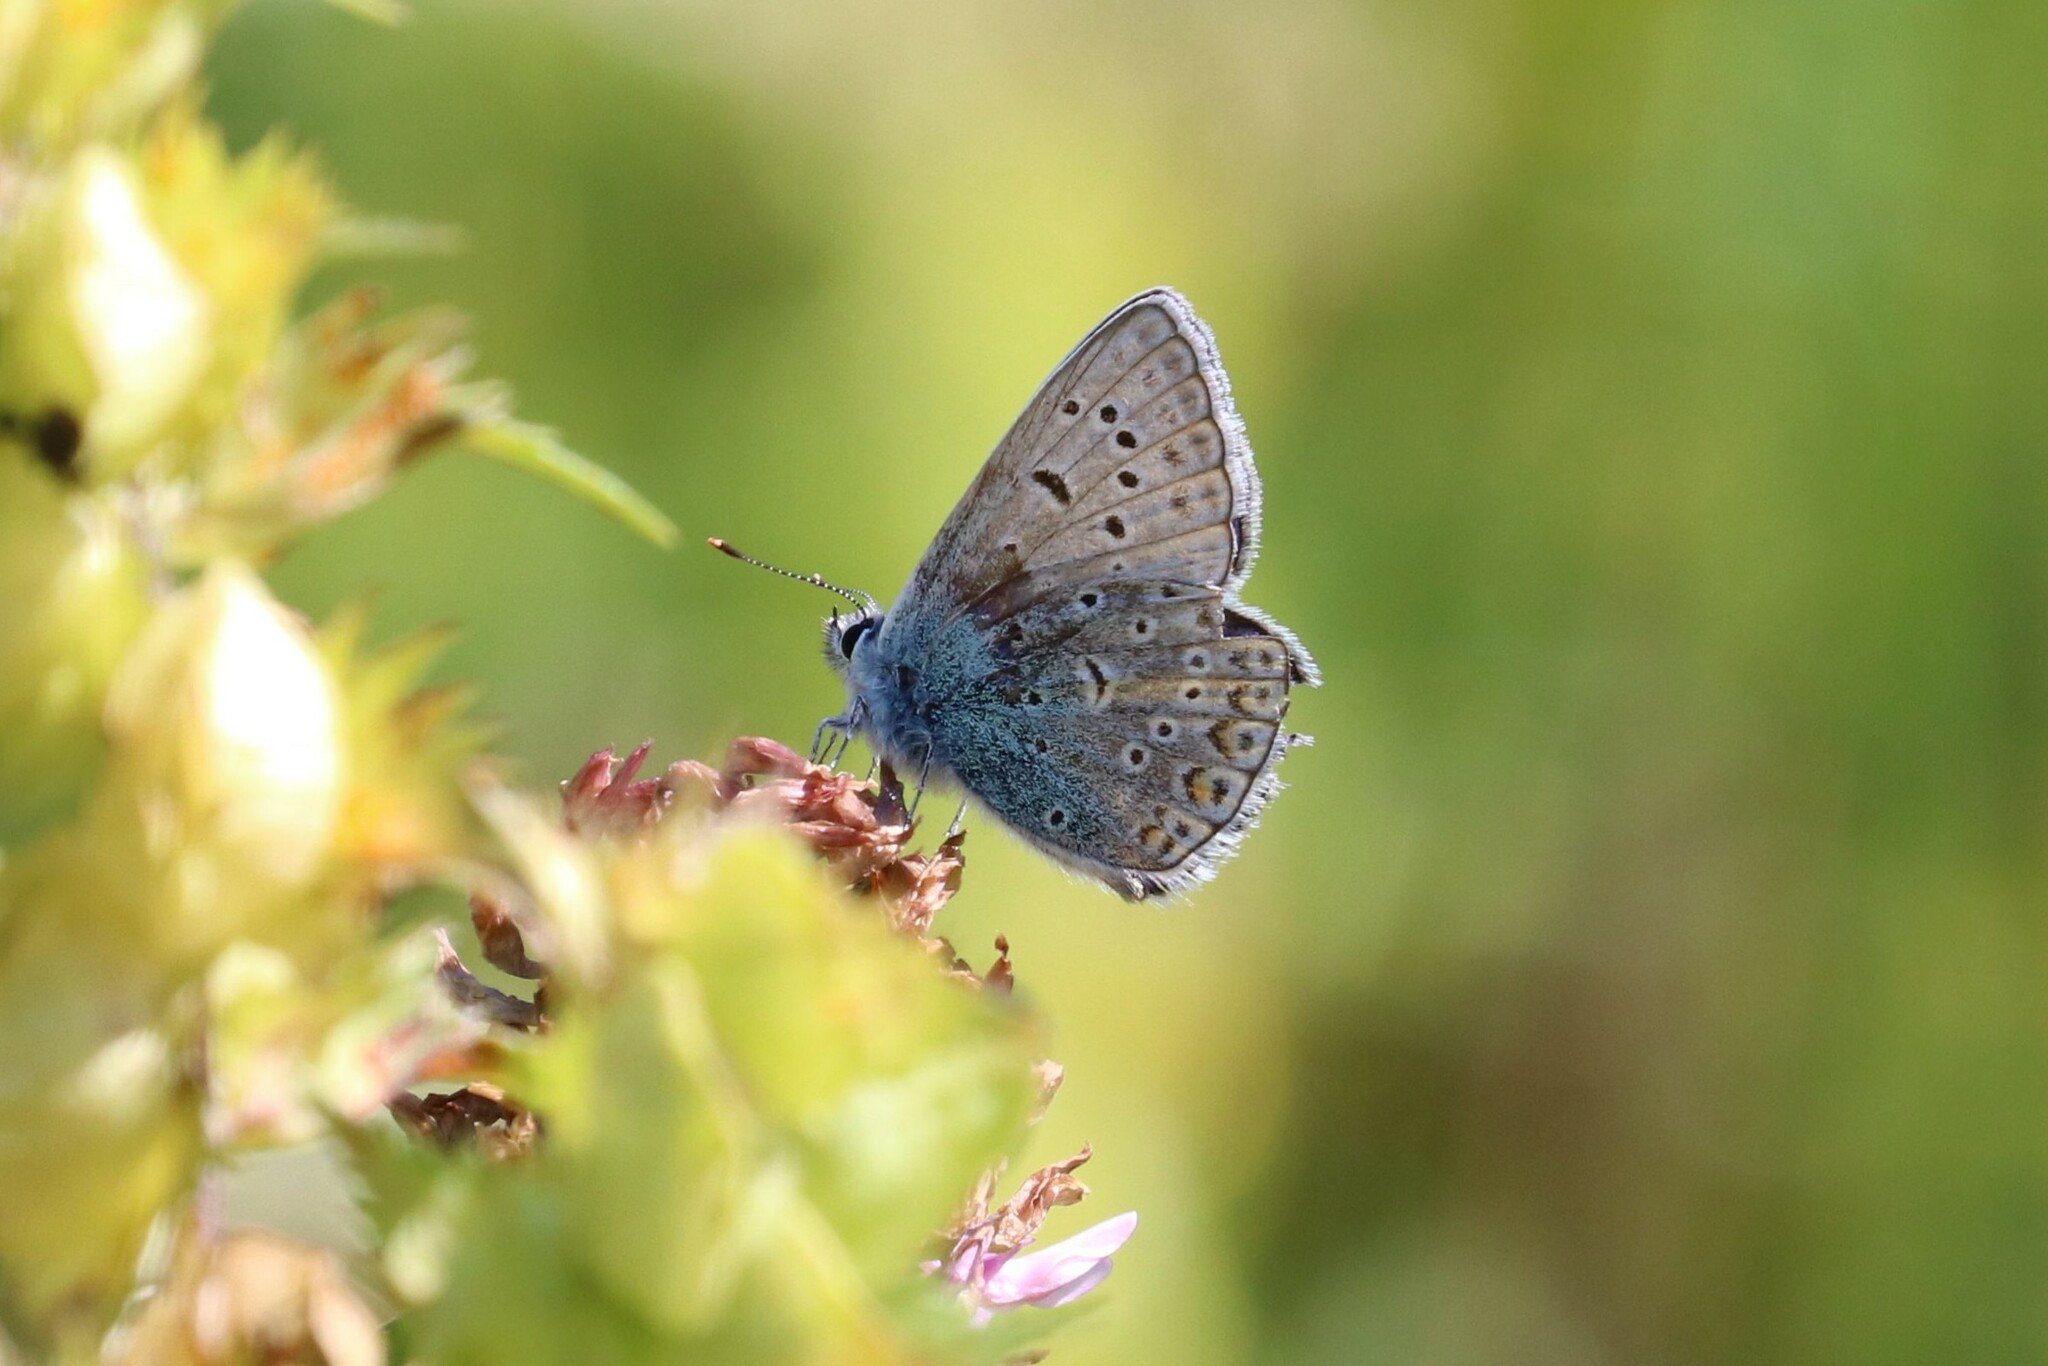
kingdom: Animalia
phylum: Arthropoda
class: Insecta
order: Lepidoptera
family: Lycaenidae
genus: Polyommatus
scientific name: Polyommatus icarus
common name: Common blue
